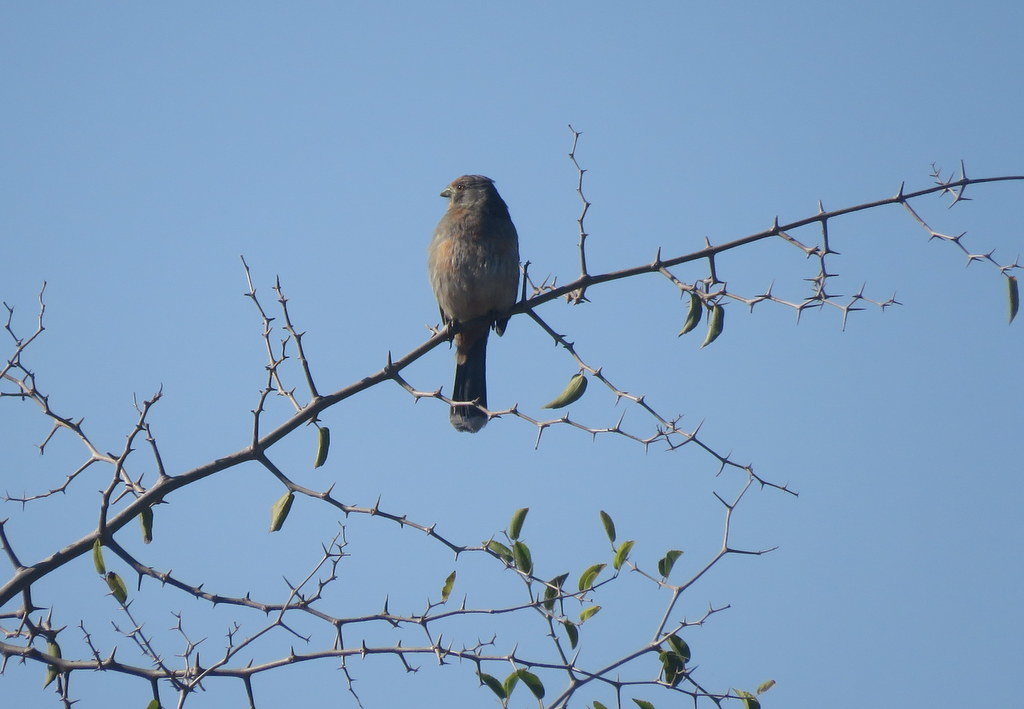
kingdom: Animalia
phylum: Chordata
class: Aves
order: Passeriformes
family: Cotingidae
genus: Phytotoma
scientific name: Phytotoma rutila
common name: White-tipped plantcutter
